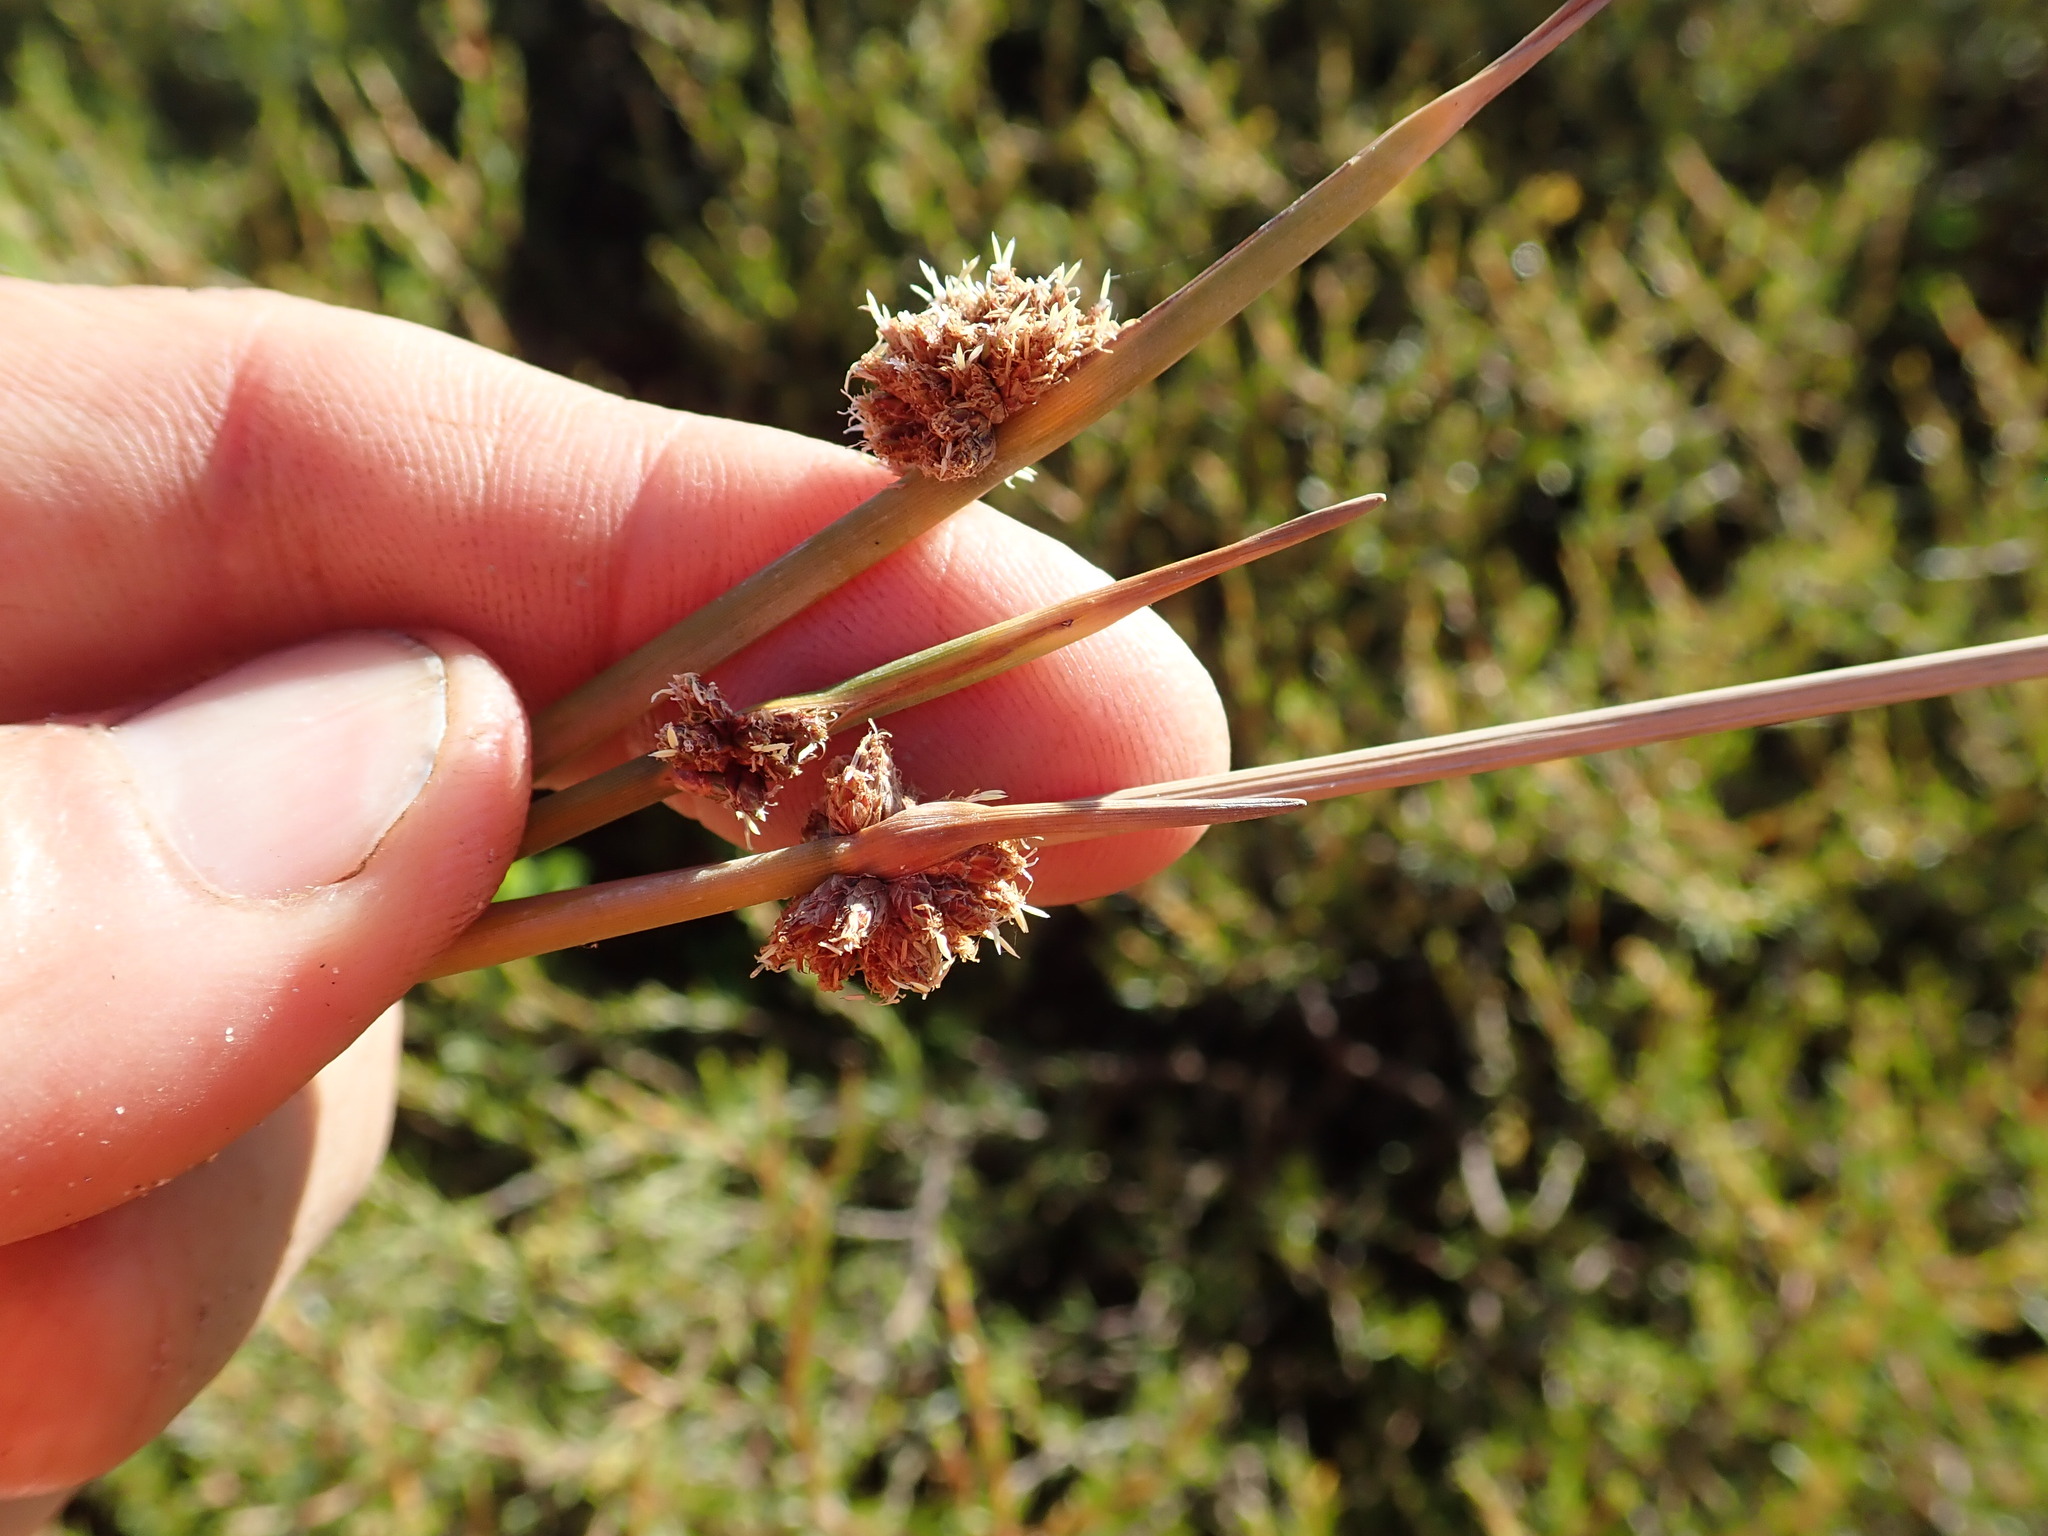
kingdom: Plantae
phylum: Tracheophyta
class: Liliopsida
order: Poales
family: Cyperaceae
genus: Ficinia
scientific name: Ficinia nodosa
